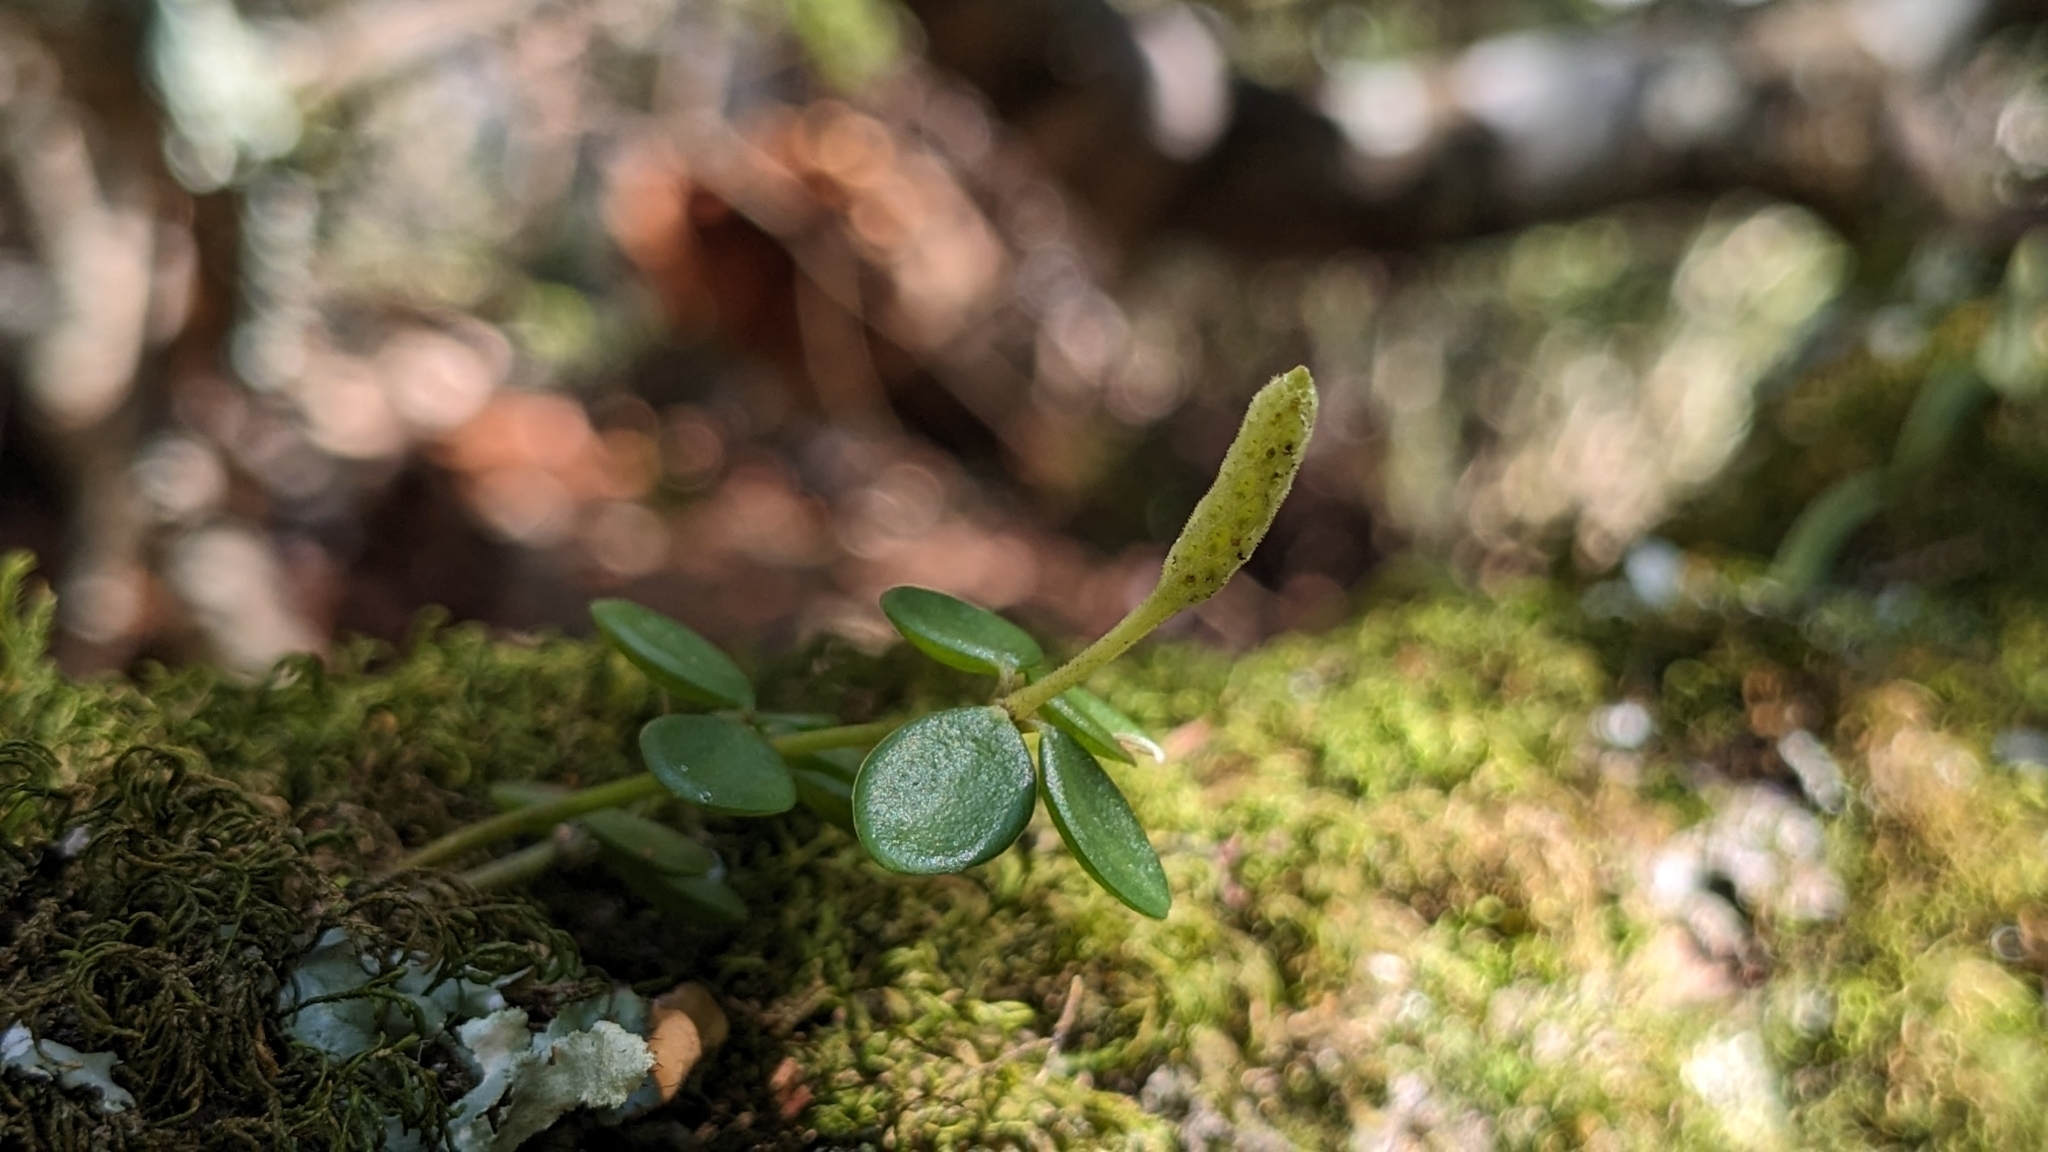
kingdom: Plantae
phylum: Tracheophyta
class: Magnoliopsida
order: Piperales
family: Piperaceae
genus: Peperomia
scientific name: Peperomia tetraphylla
